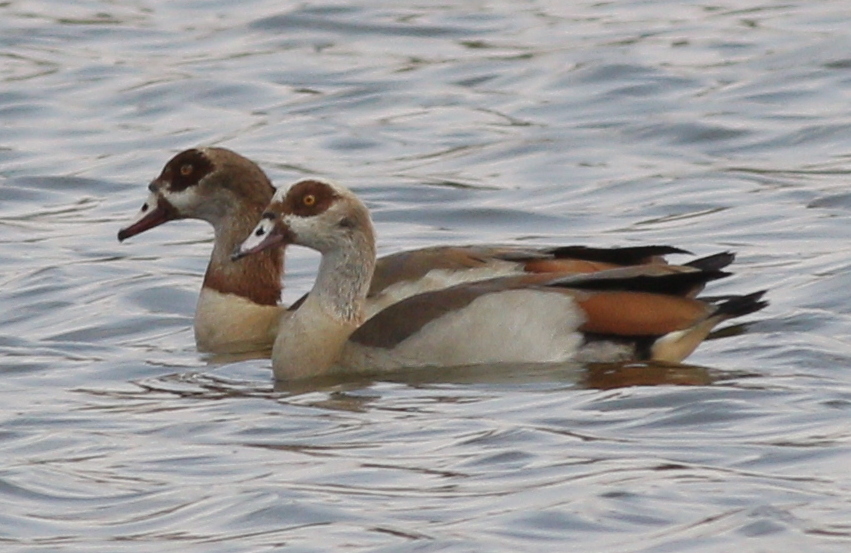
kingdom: Animalia
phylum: Chordata
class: Aves
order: Anseriformes
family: Anatidae
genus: Alopochen
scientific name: Alopochen aegyptiaca
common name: Egyptian goose
